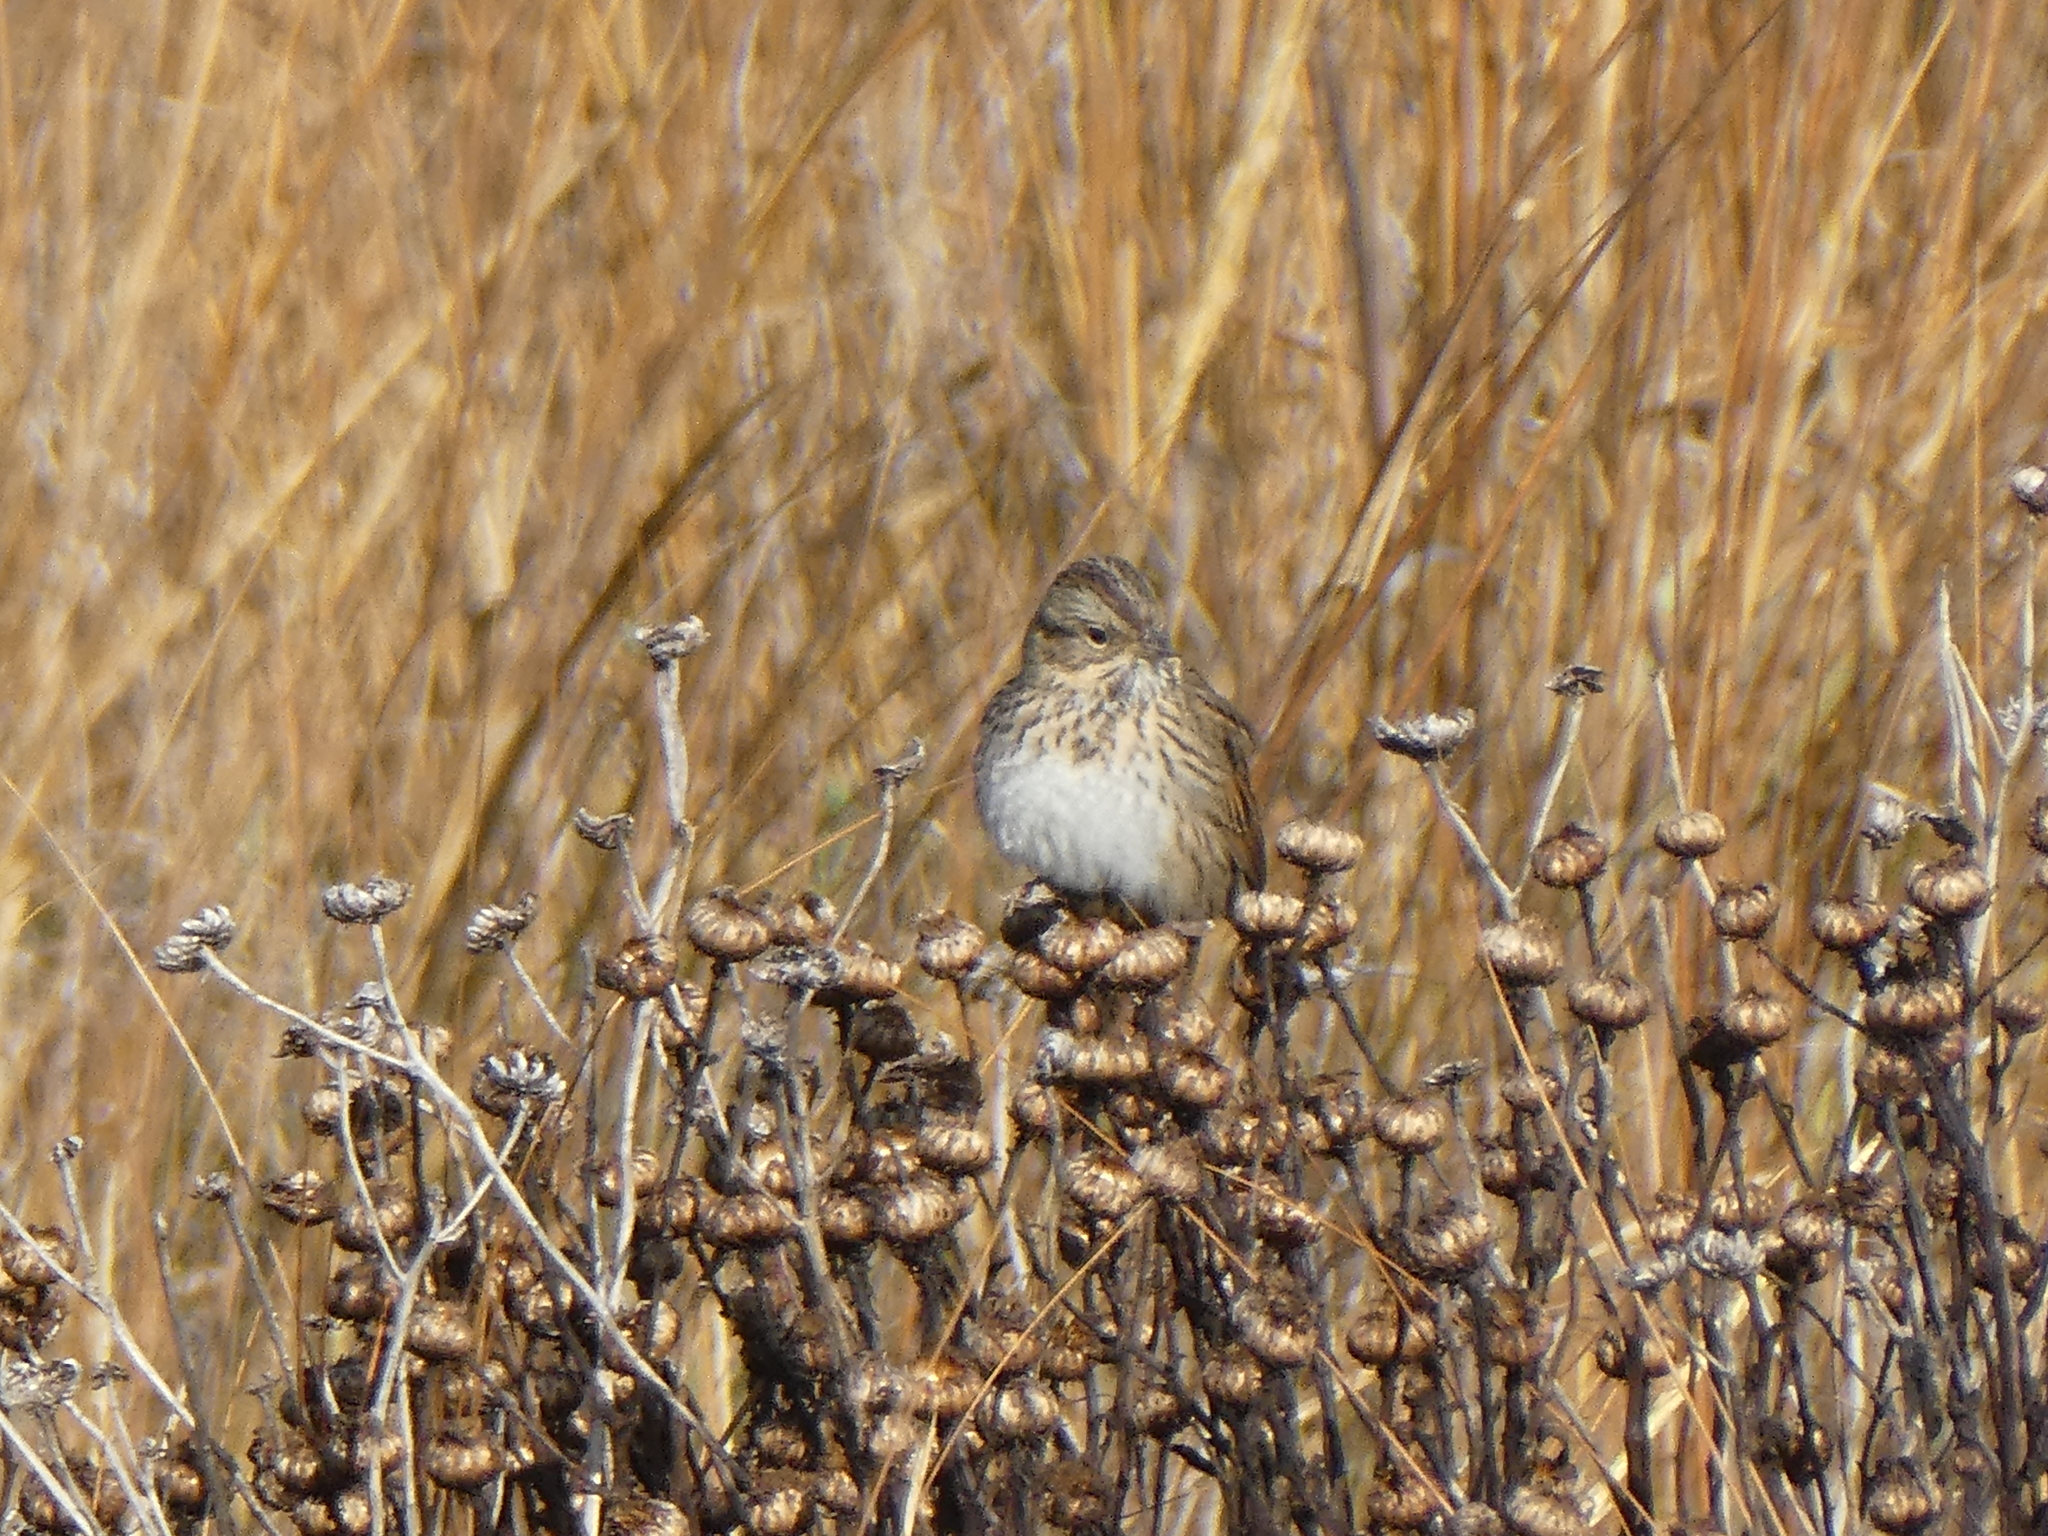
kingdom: Animalia
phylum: Chordata
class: Aves
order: Passeriformes
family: Passerellidae
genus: Melospiza
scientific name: Melospiza lincolnii
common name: Lincoln's sparrow
